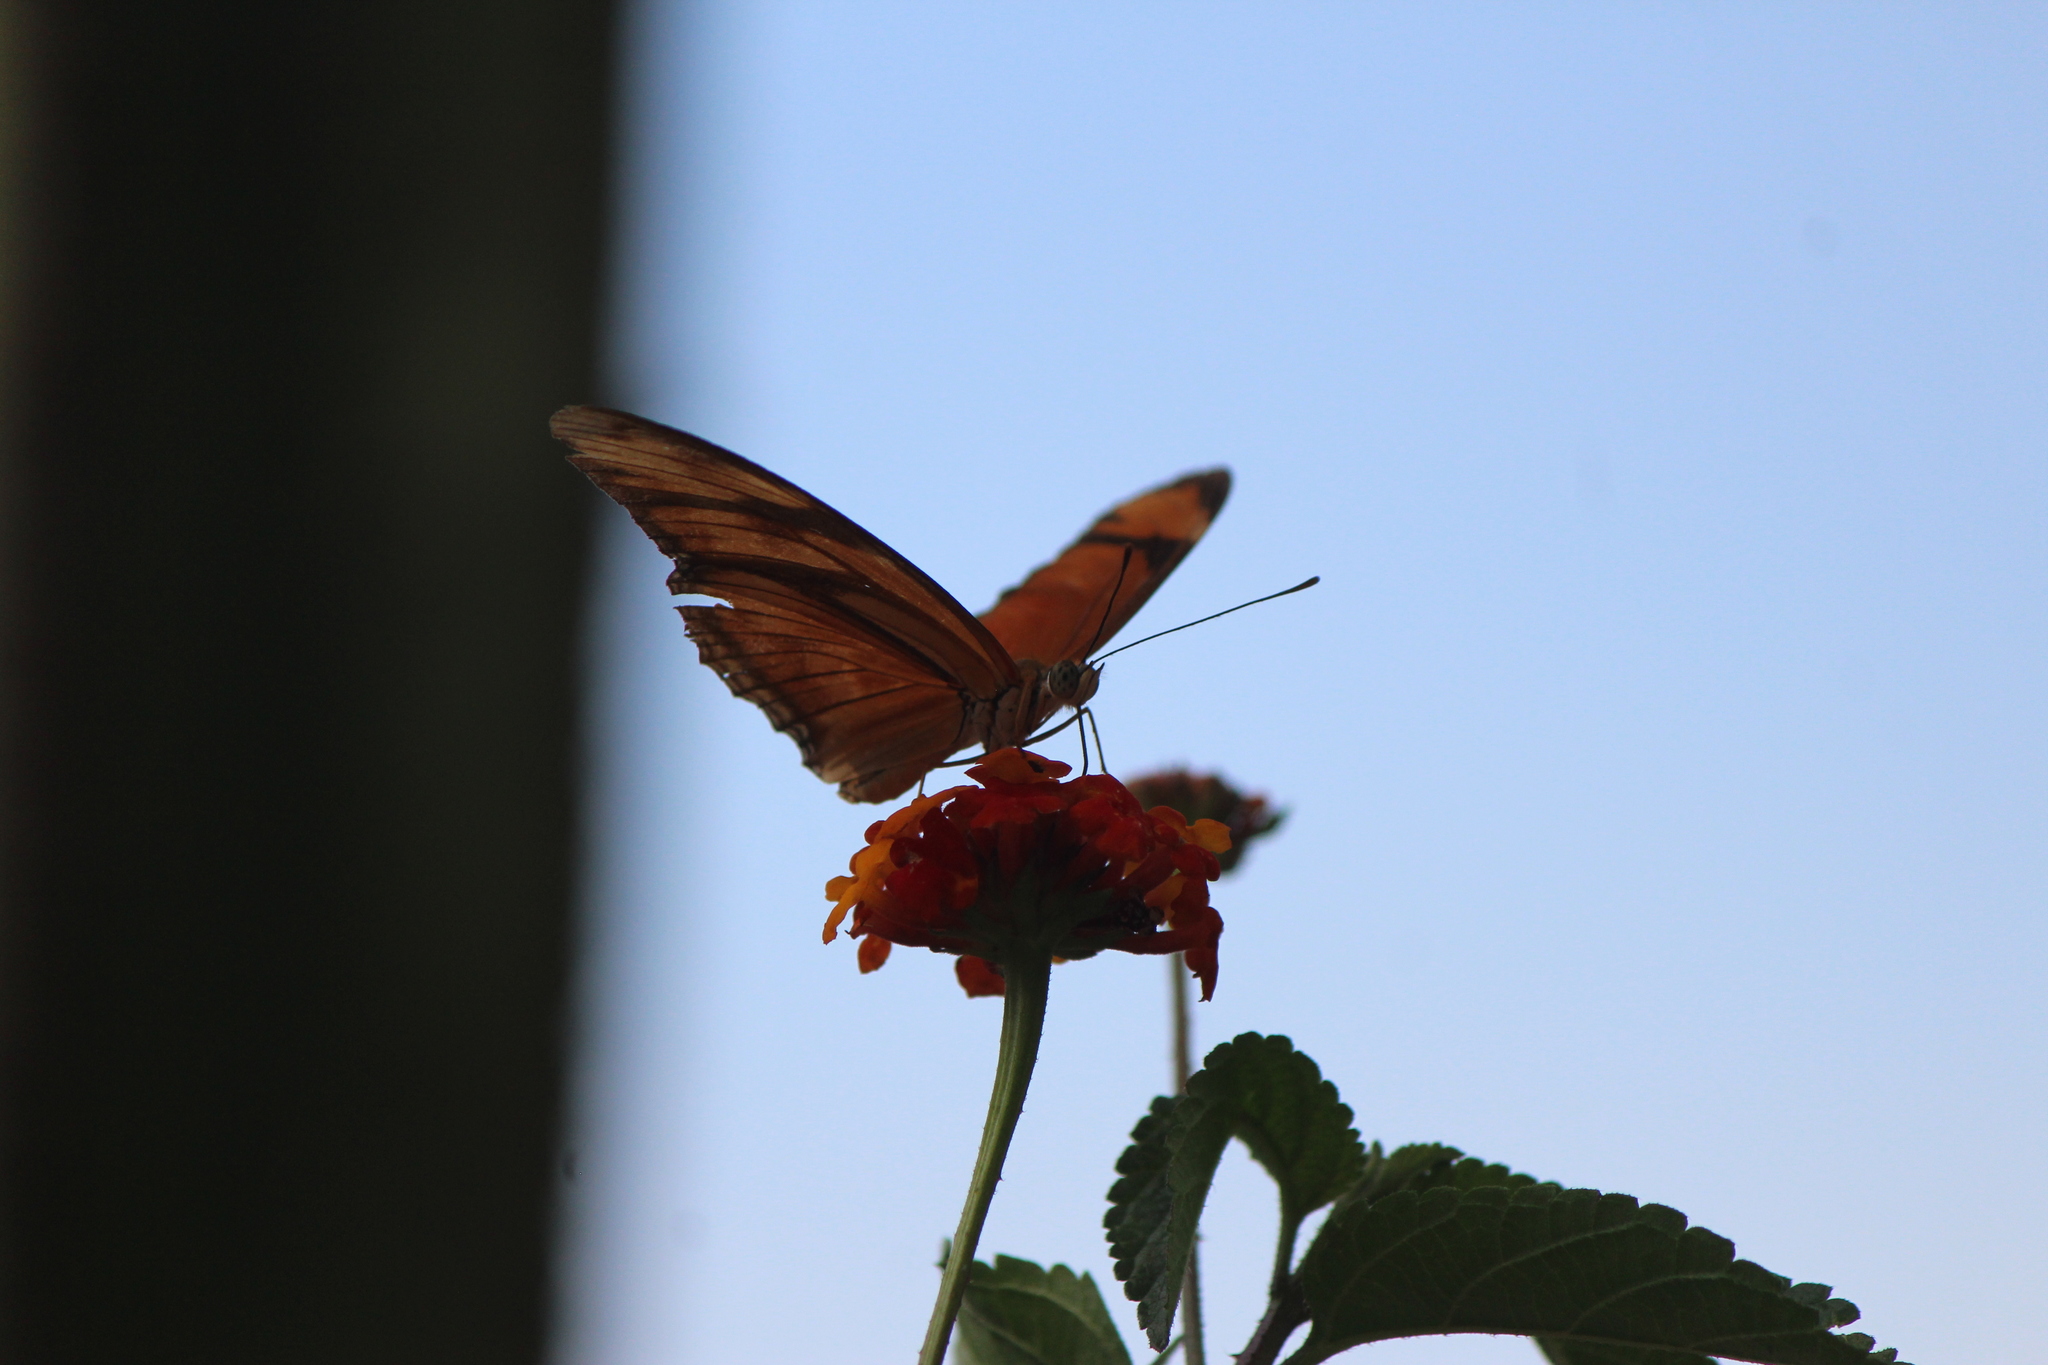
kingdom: Animalia
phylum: Arthropoda
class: Insecta
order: Lepidoptera
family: Nymphalidae
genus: Dione
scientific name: Dione juno
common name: Juno silverspot
